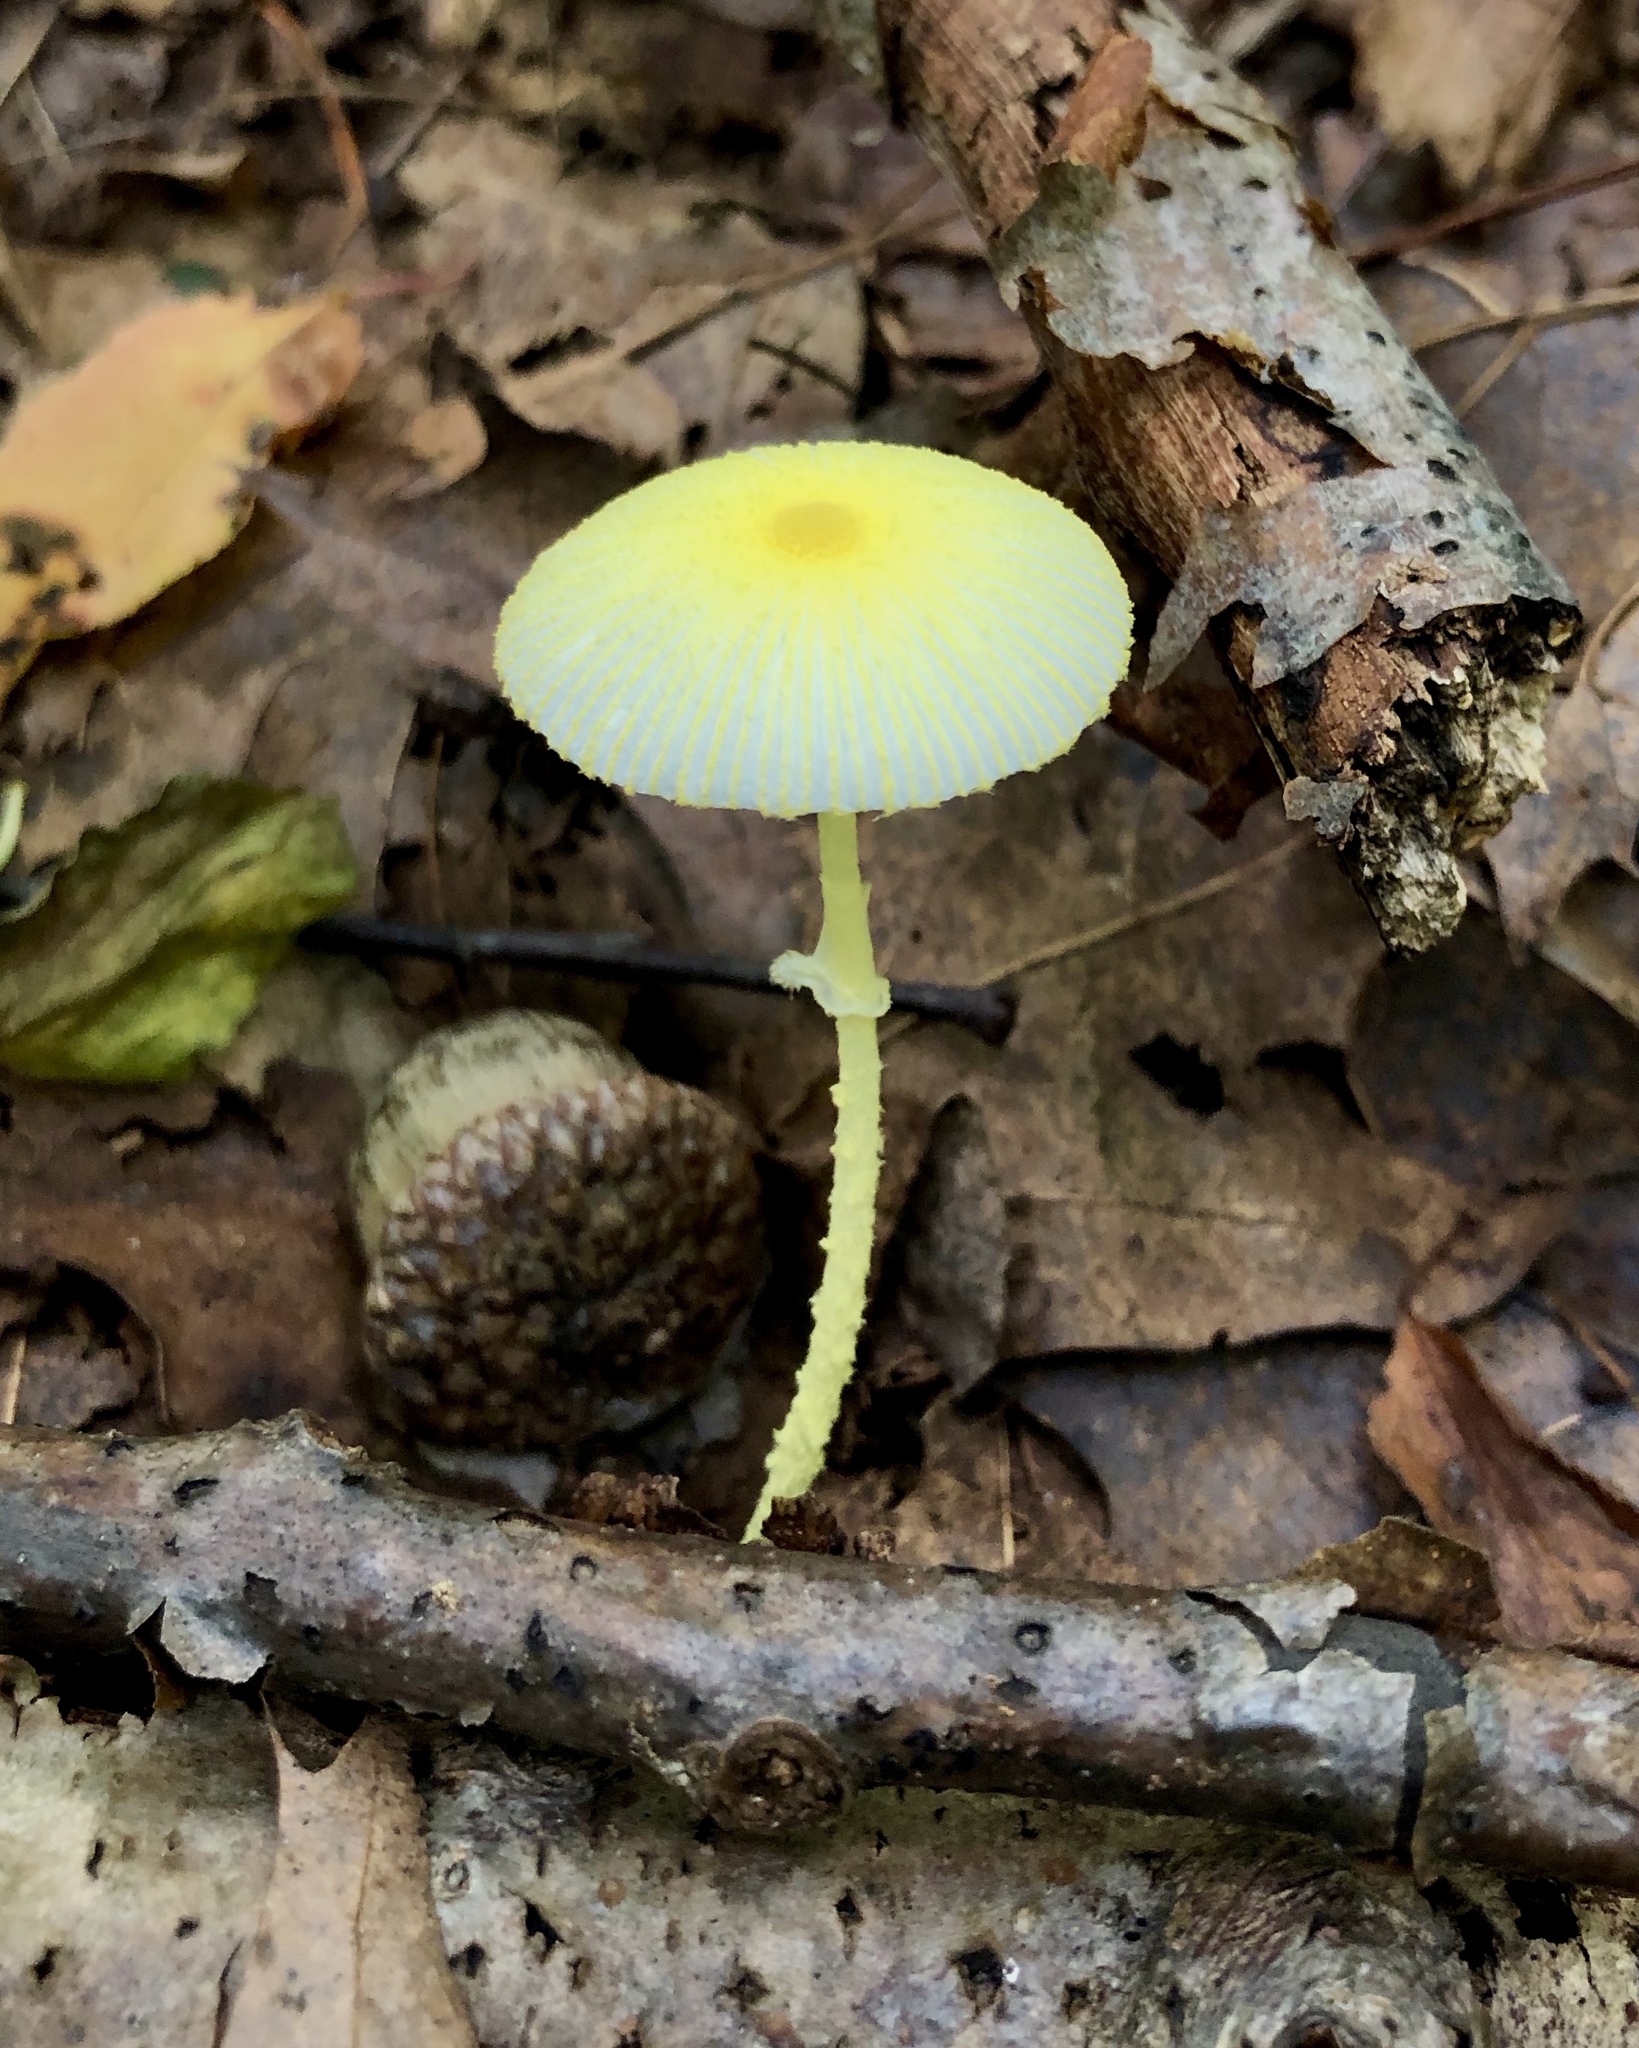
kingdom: Fungi
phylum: Basidiomycota
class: Agaricomycetes
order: Agaricales
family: Agaricaceae
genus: Leucocoprinus
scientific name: Leucocoprinus fragilissimus
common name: Fragile dapperling
